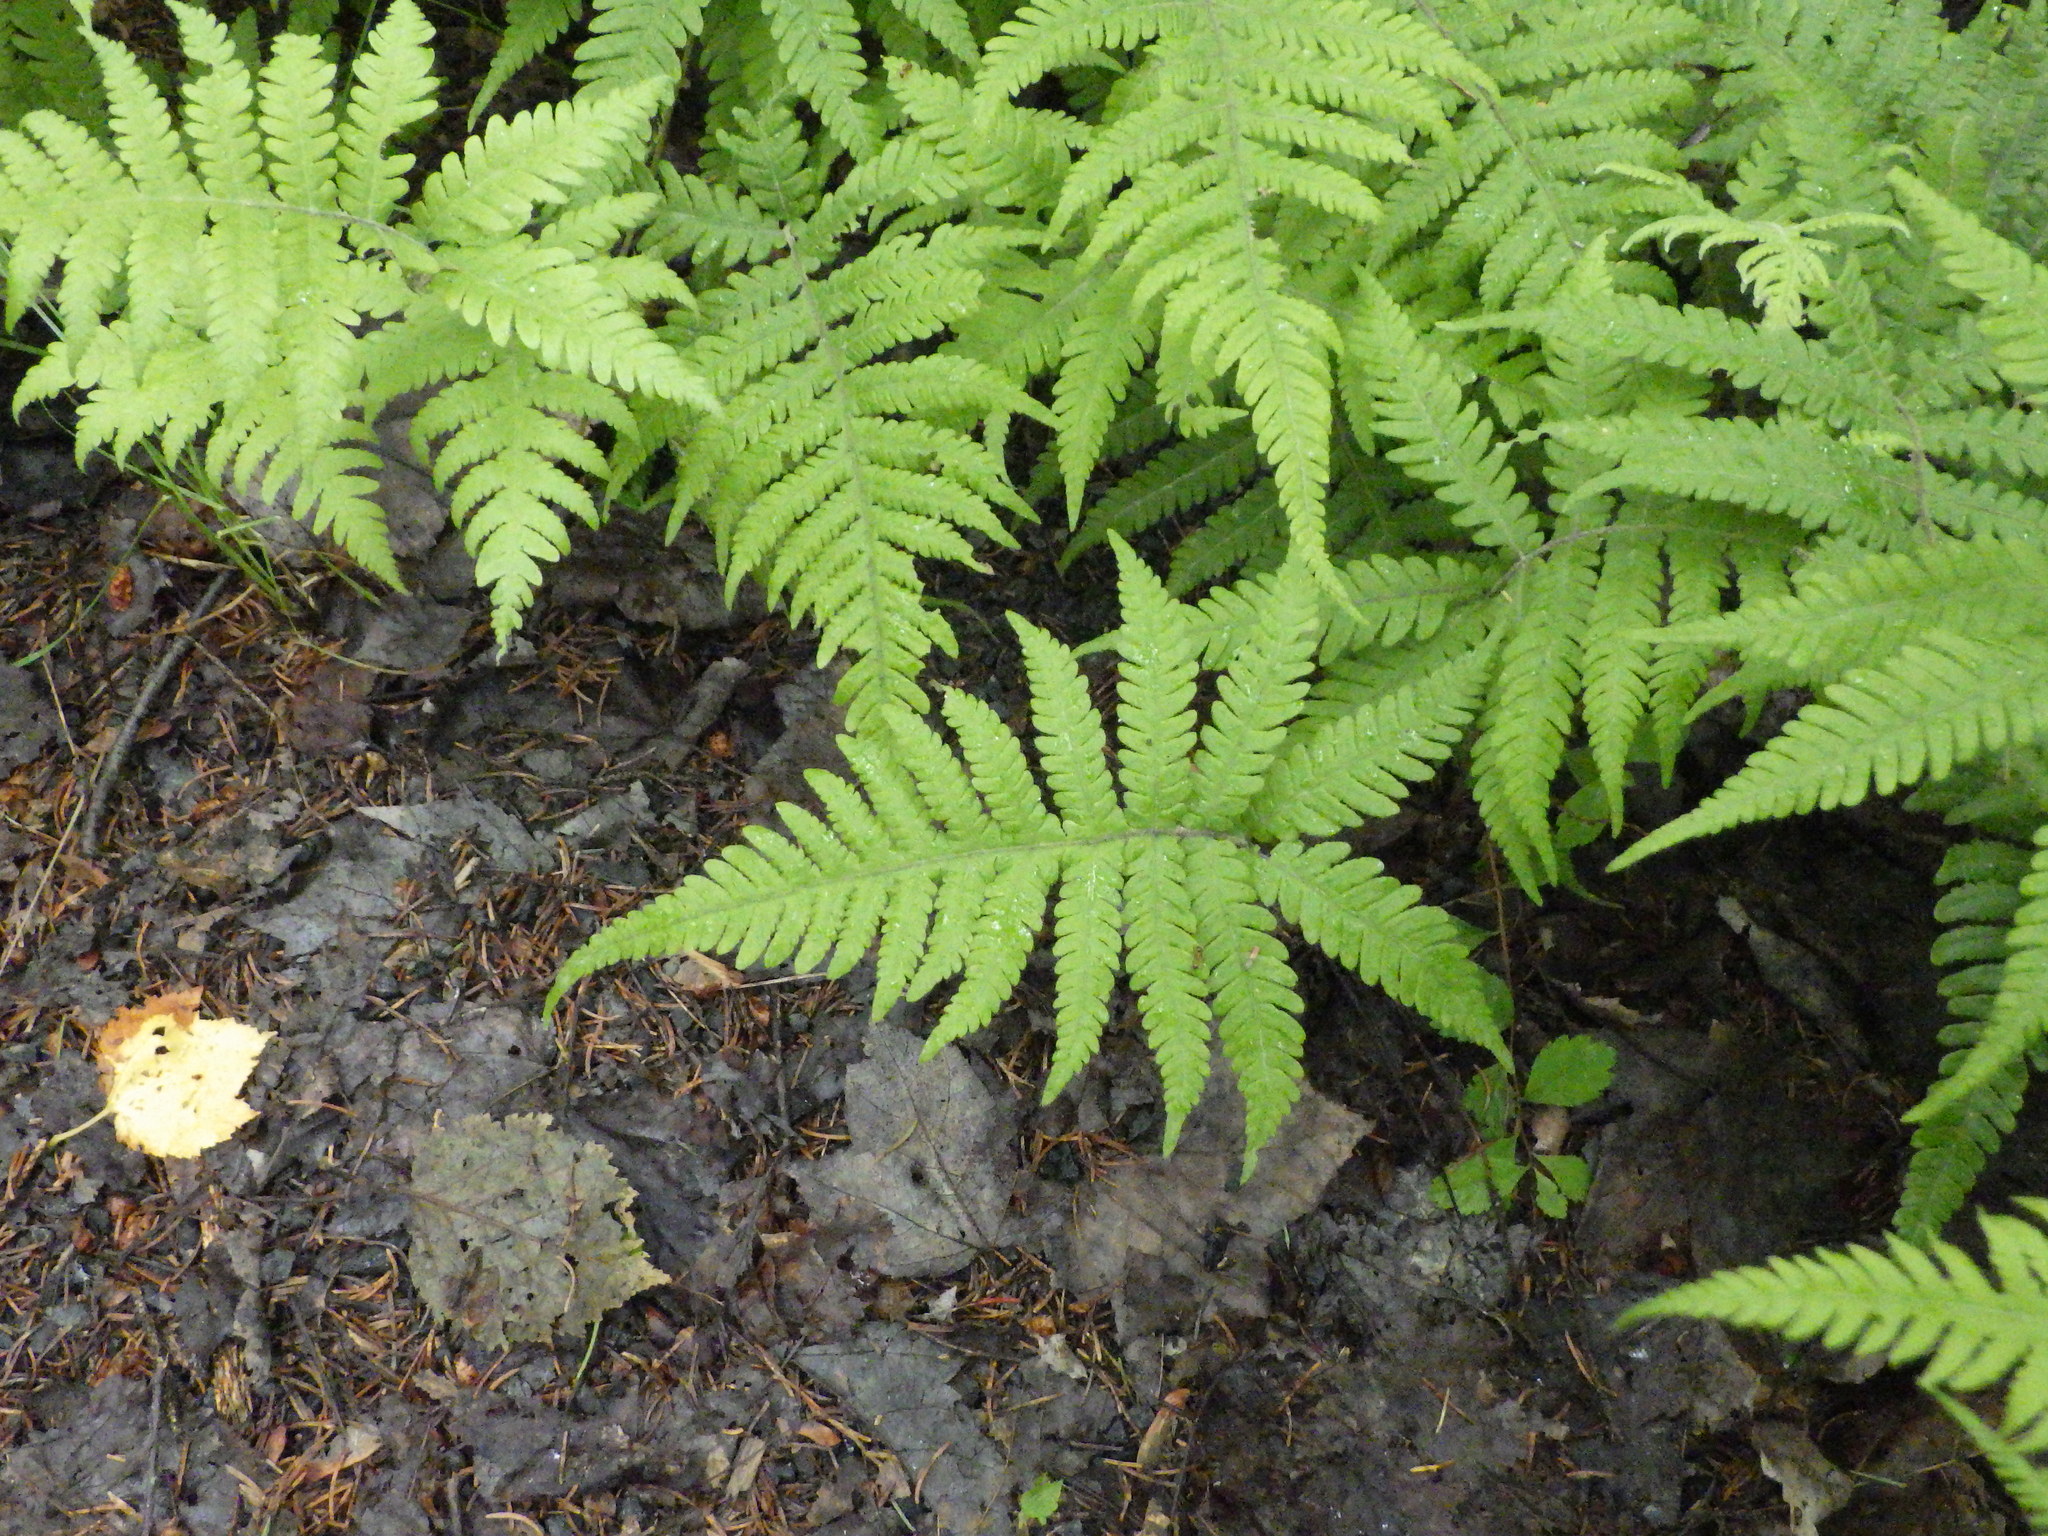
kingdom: Plantae
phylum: Tracheophyta
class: Polypodiopsida
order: Polypodiales
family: Thelypteridaceae
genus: Phegopteris
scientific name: Phegopteris connectilis
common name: Beech fern
